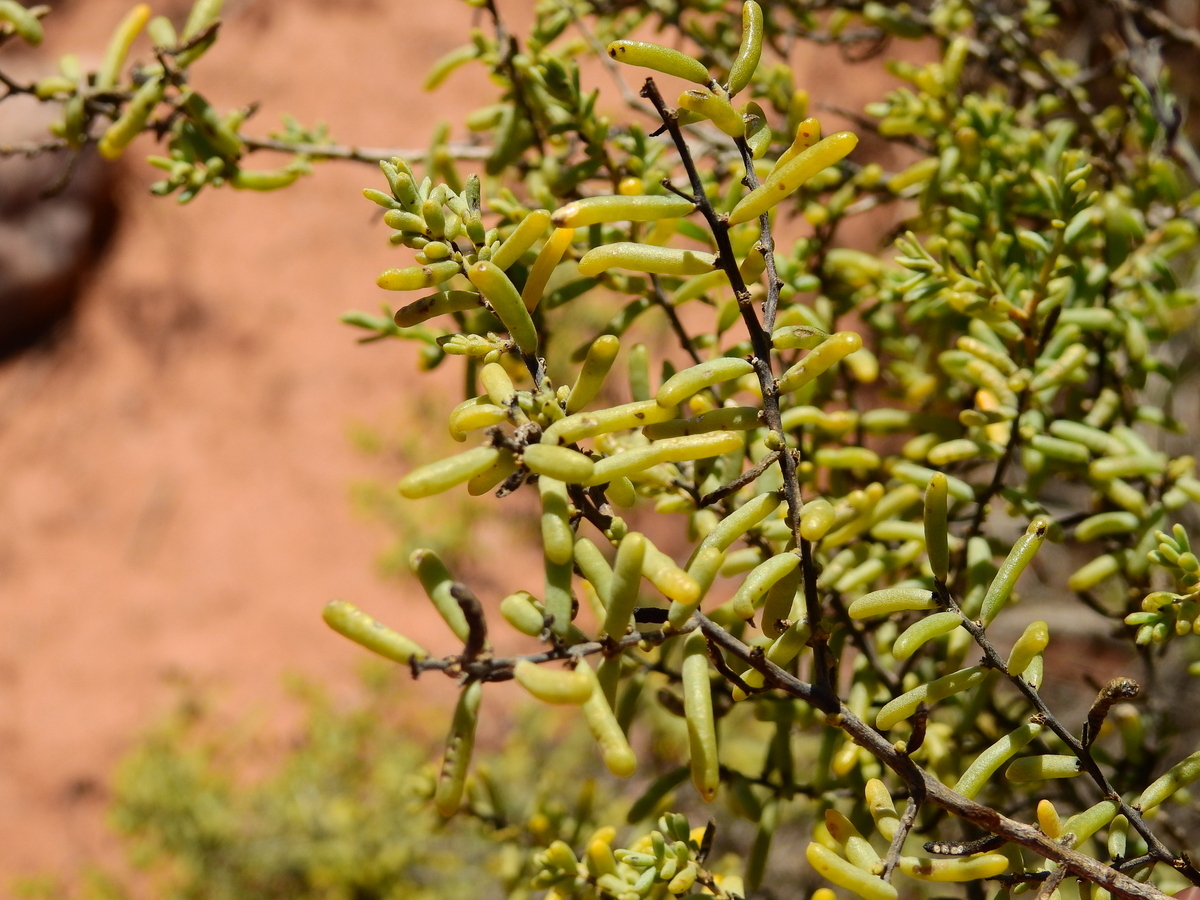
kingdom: Plantae
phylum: Tracheophyta
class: Magnoliopsida
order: Caryophyllales
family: Amaranthaceae
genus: Suaeda
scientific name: Suaeda divaricata
